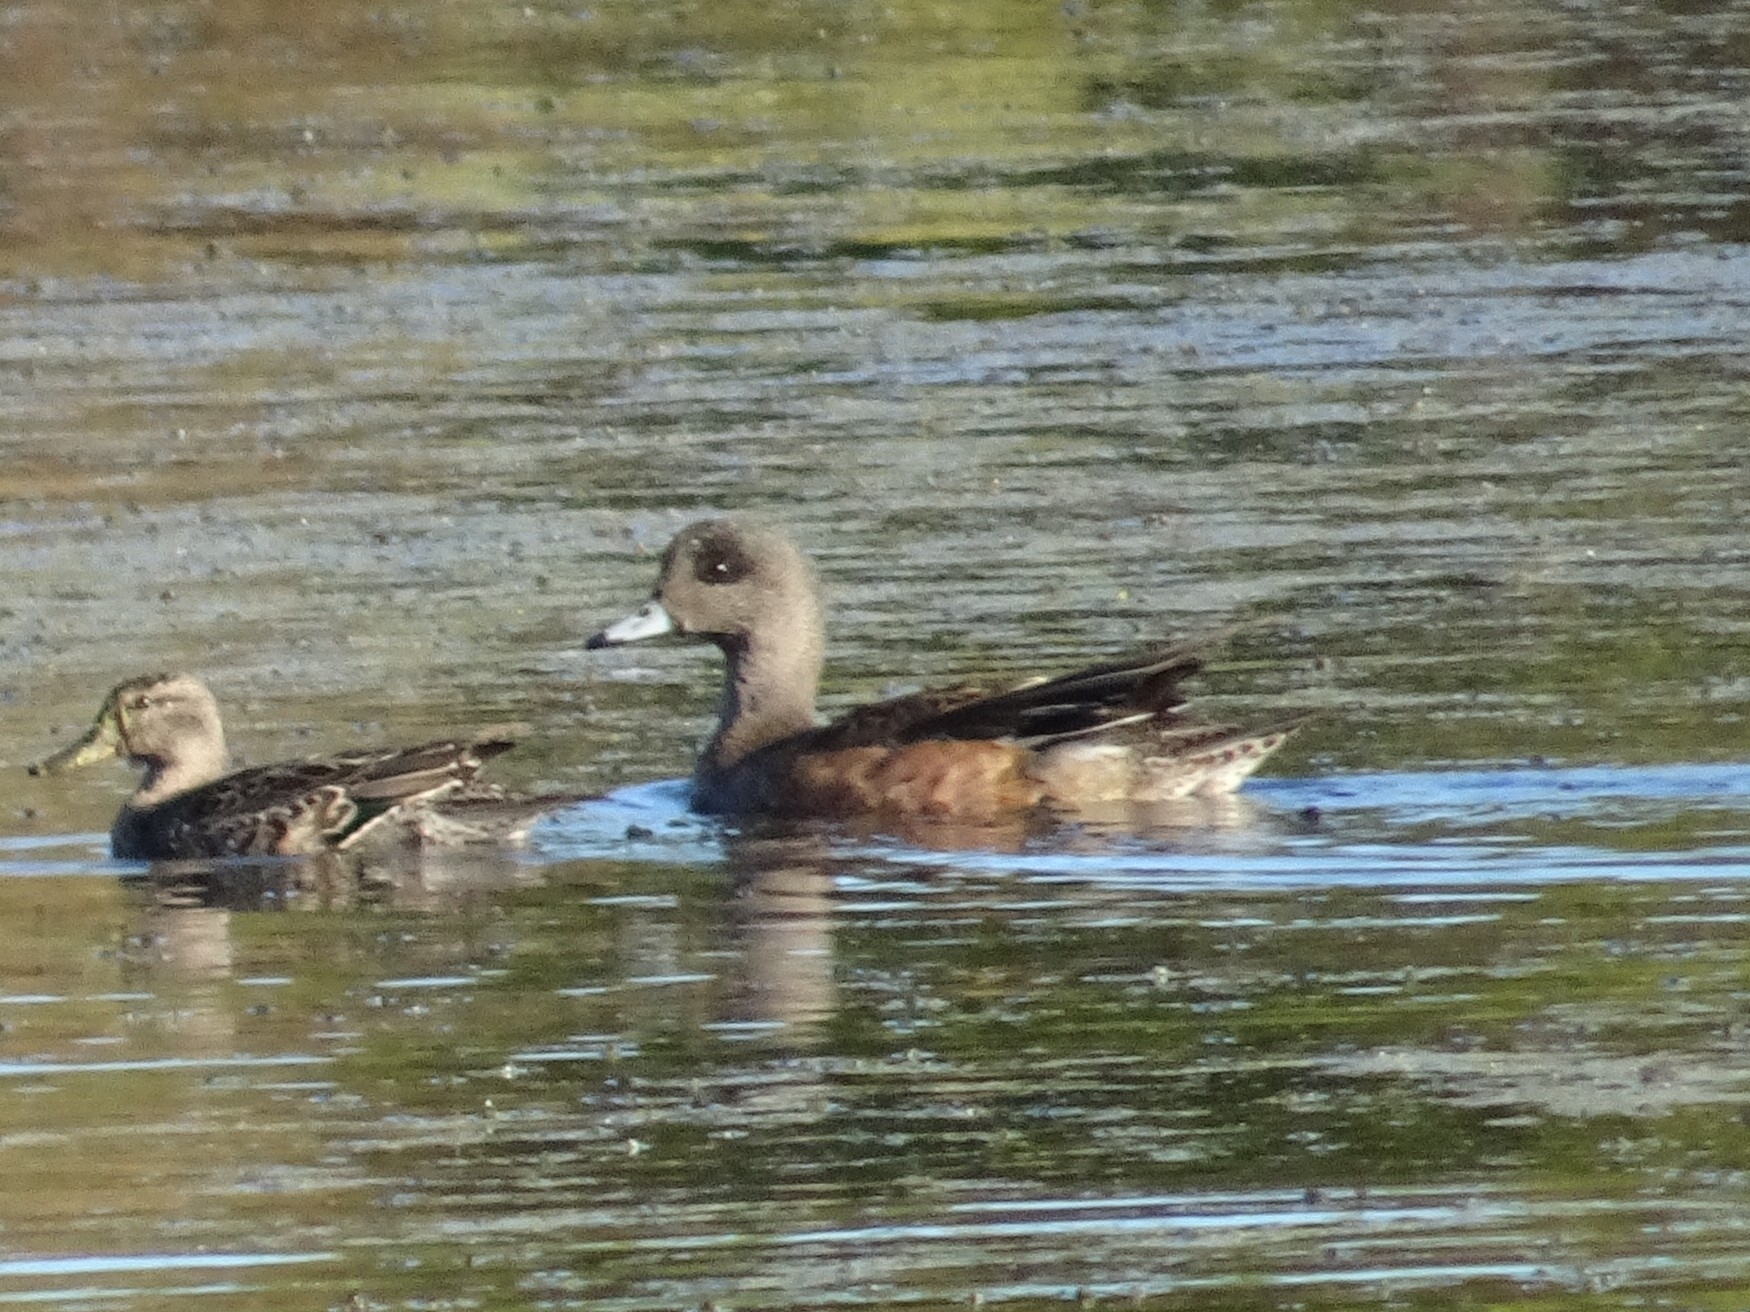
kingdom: Animalia
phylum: Chordata
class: Aves
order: Anseriformes
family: Anatidae
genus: Mareca
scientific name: Mareca americana
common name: American wigeon
